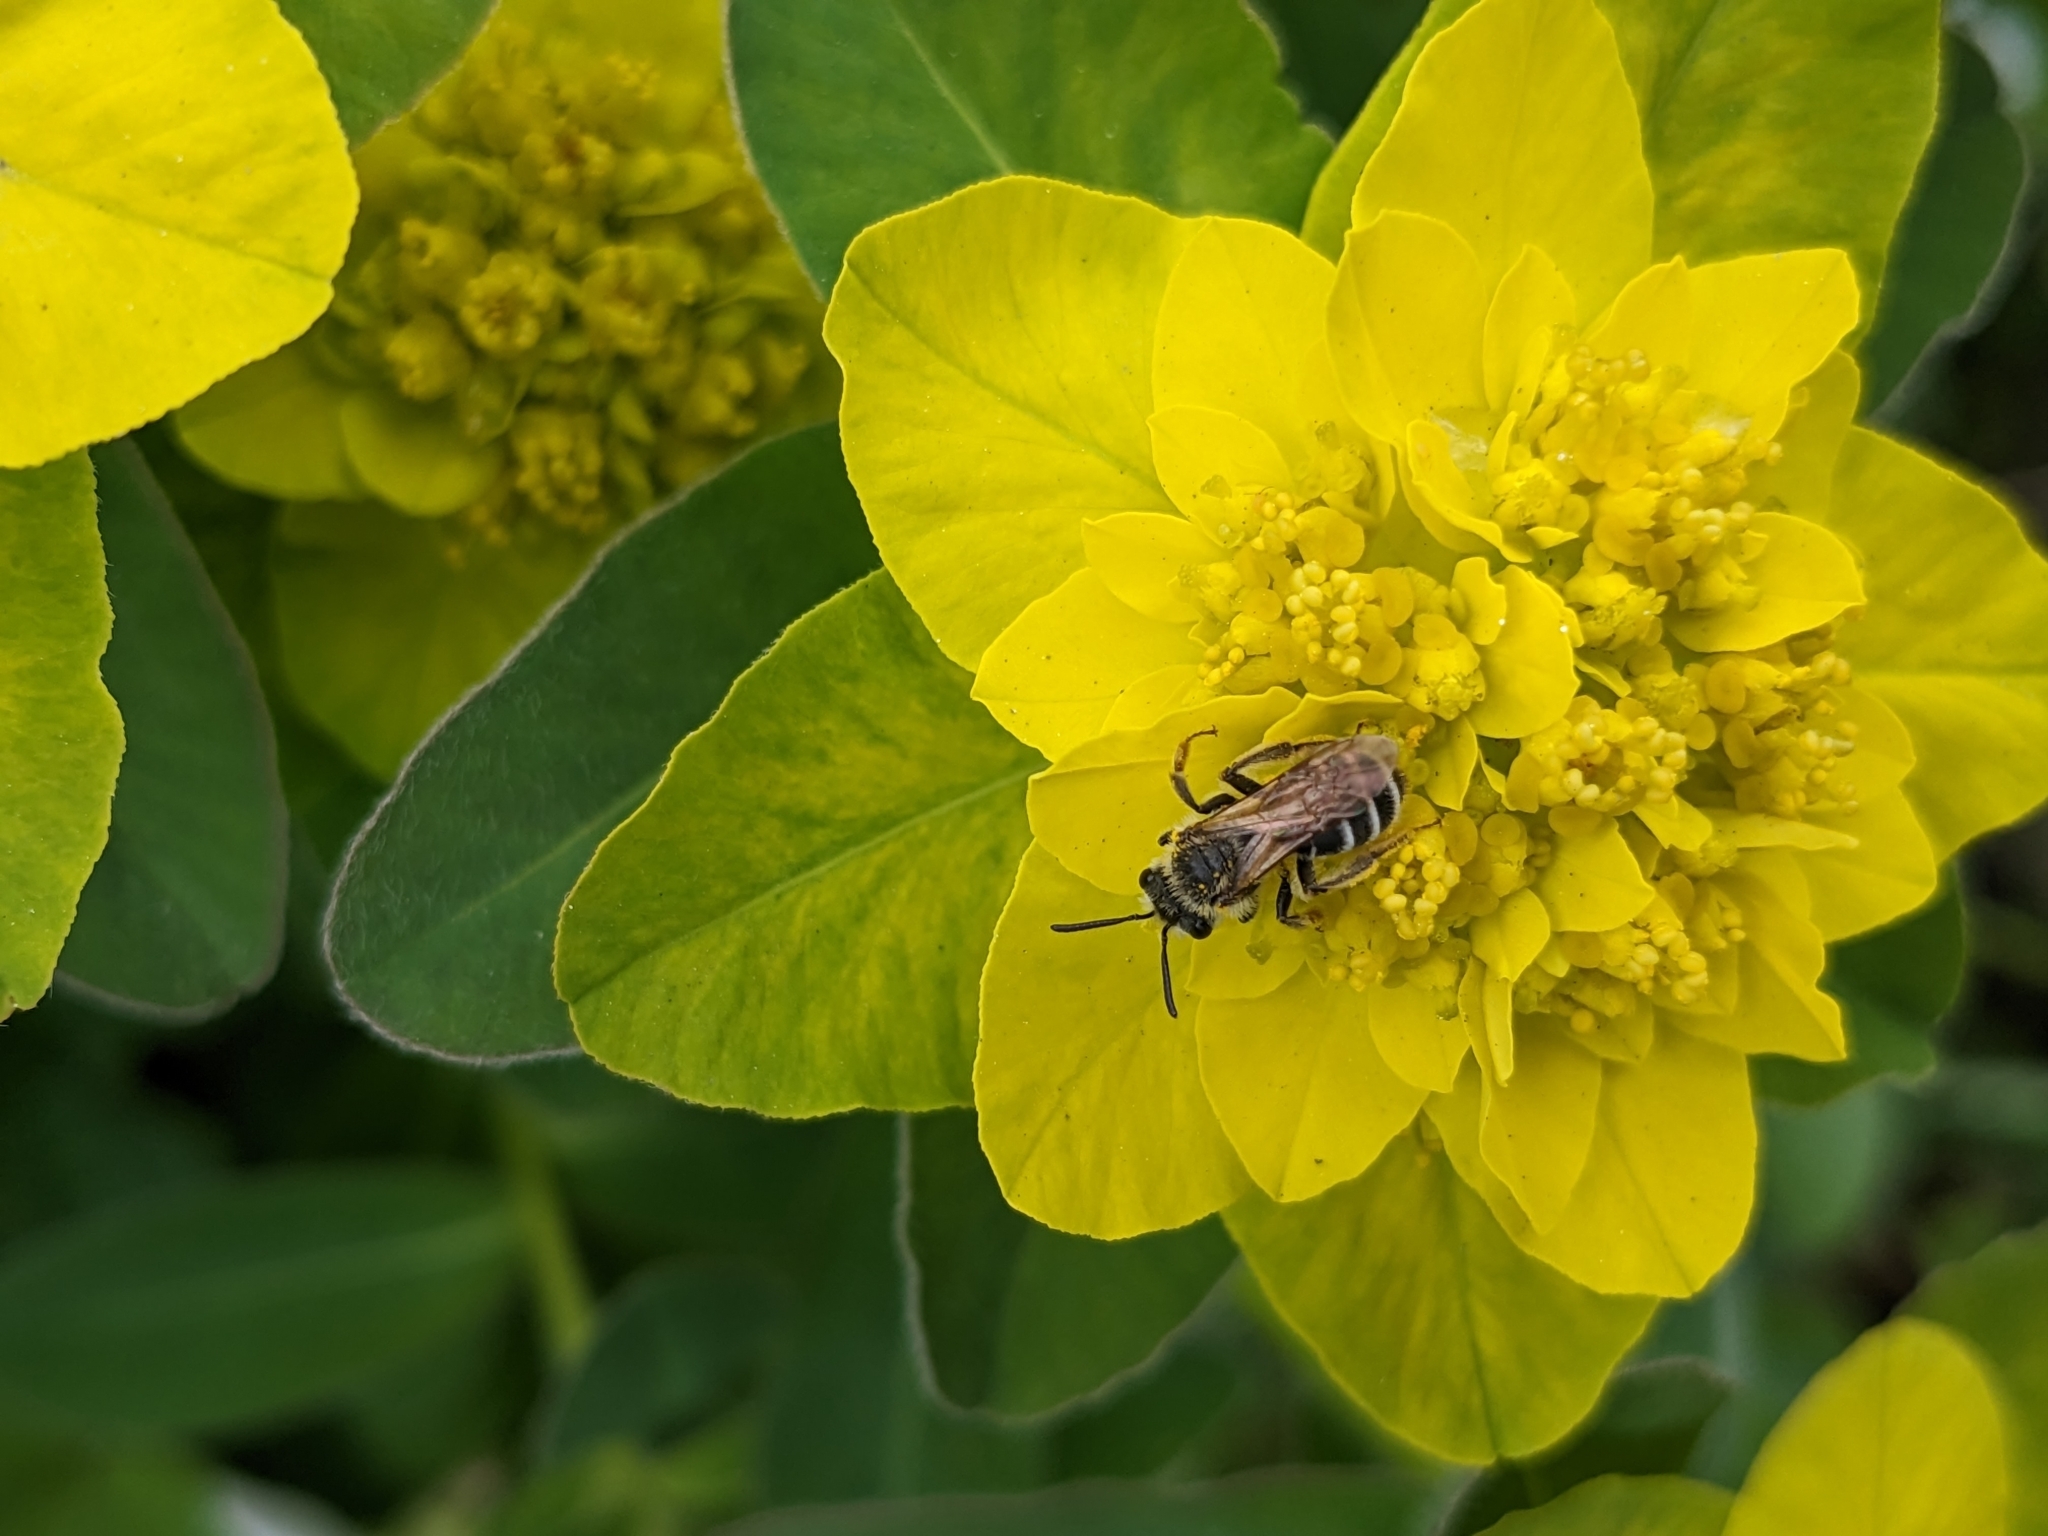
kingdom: Animalia
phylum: Arthropoda
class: Insecta
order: Hymenoptera
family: Andrenidae
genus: Andrena
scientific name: Andrena nasonii
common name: Nason's mining bee
